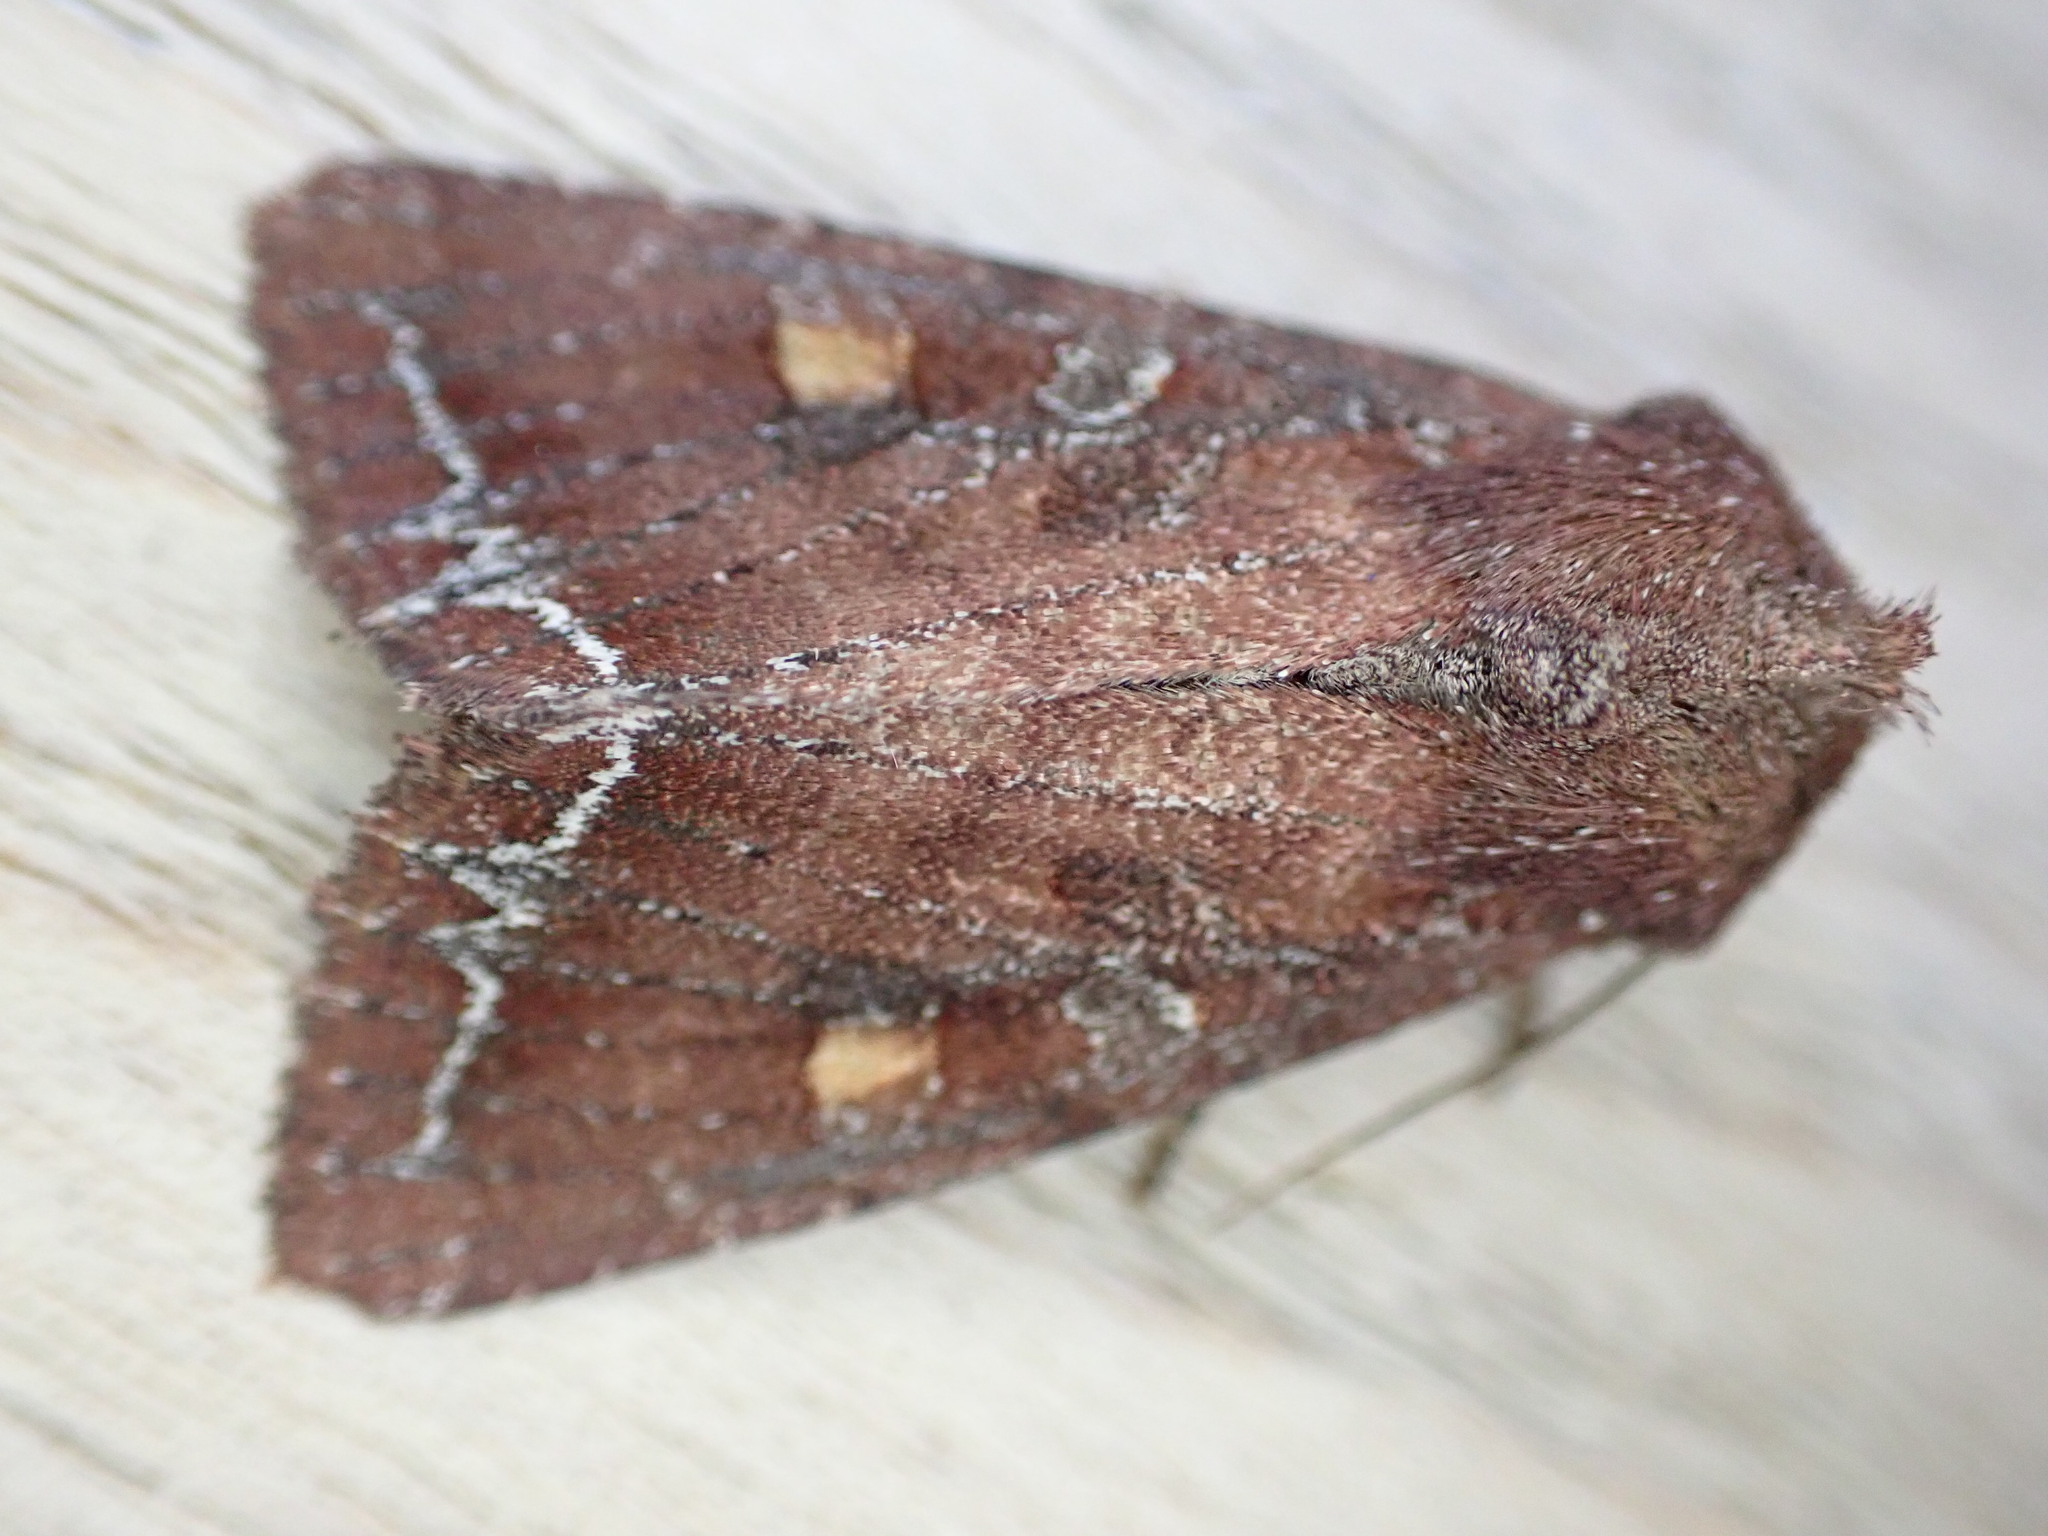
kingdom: Animalia
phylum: Arthropoda
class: Insecta
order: Lepidoptera
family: Noctuidae
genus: Lacanobia
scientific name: Lacanobia oleracea
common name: Bright-line brown-eye
